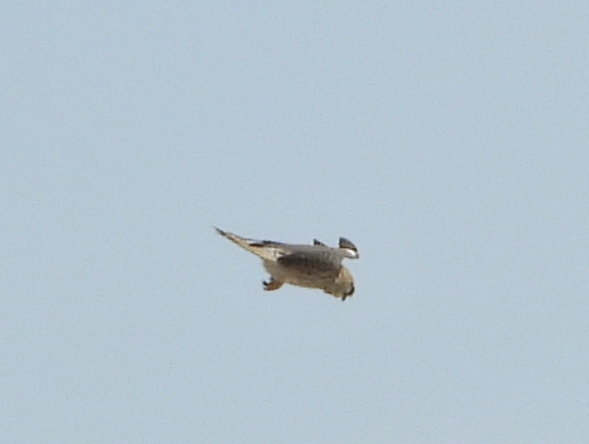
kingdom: Animalia
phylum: Chordata
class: Aves
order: Falconiformes
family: Falconidae
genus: Falco
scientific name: Falco tinnunculus
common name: Common kestrel
